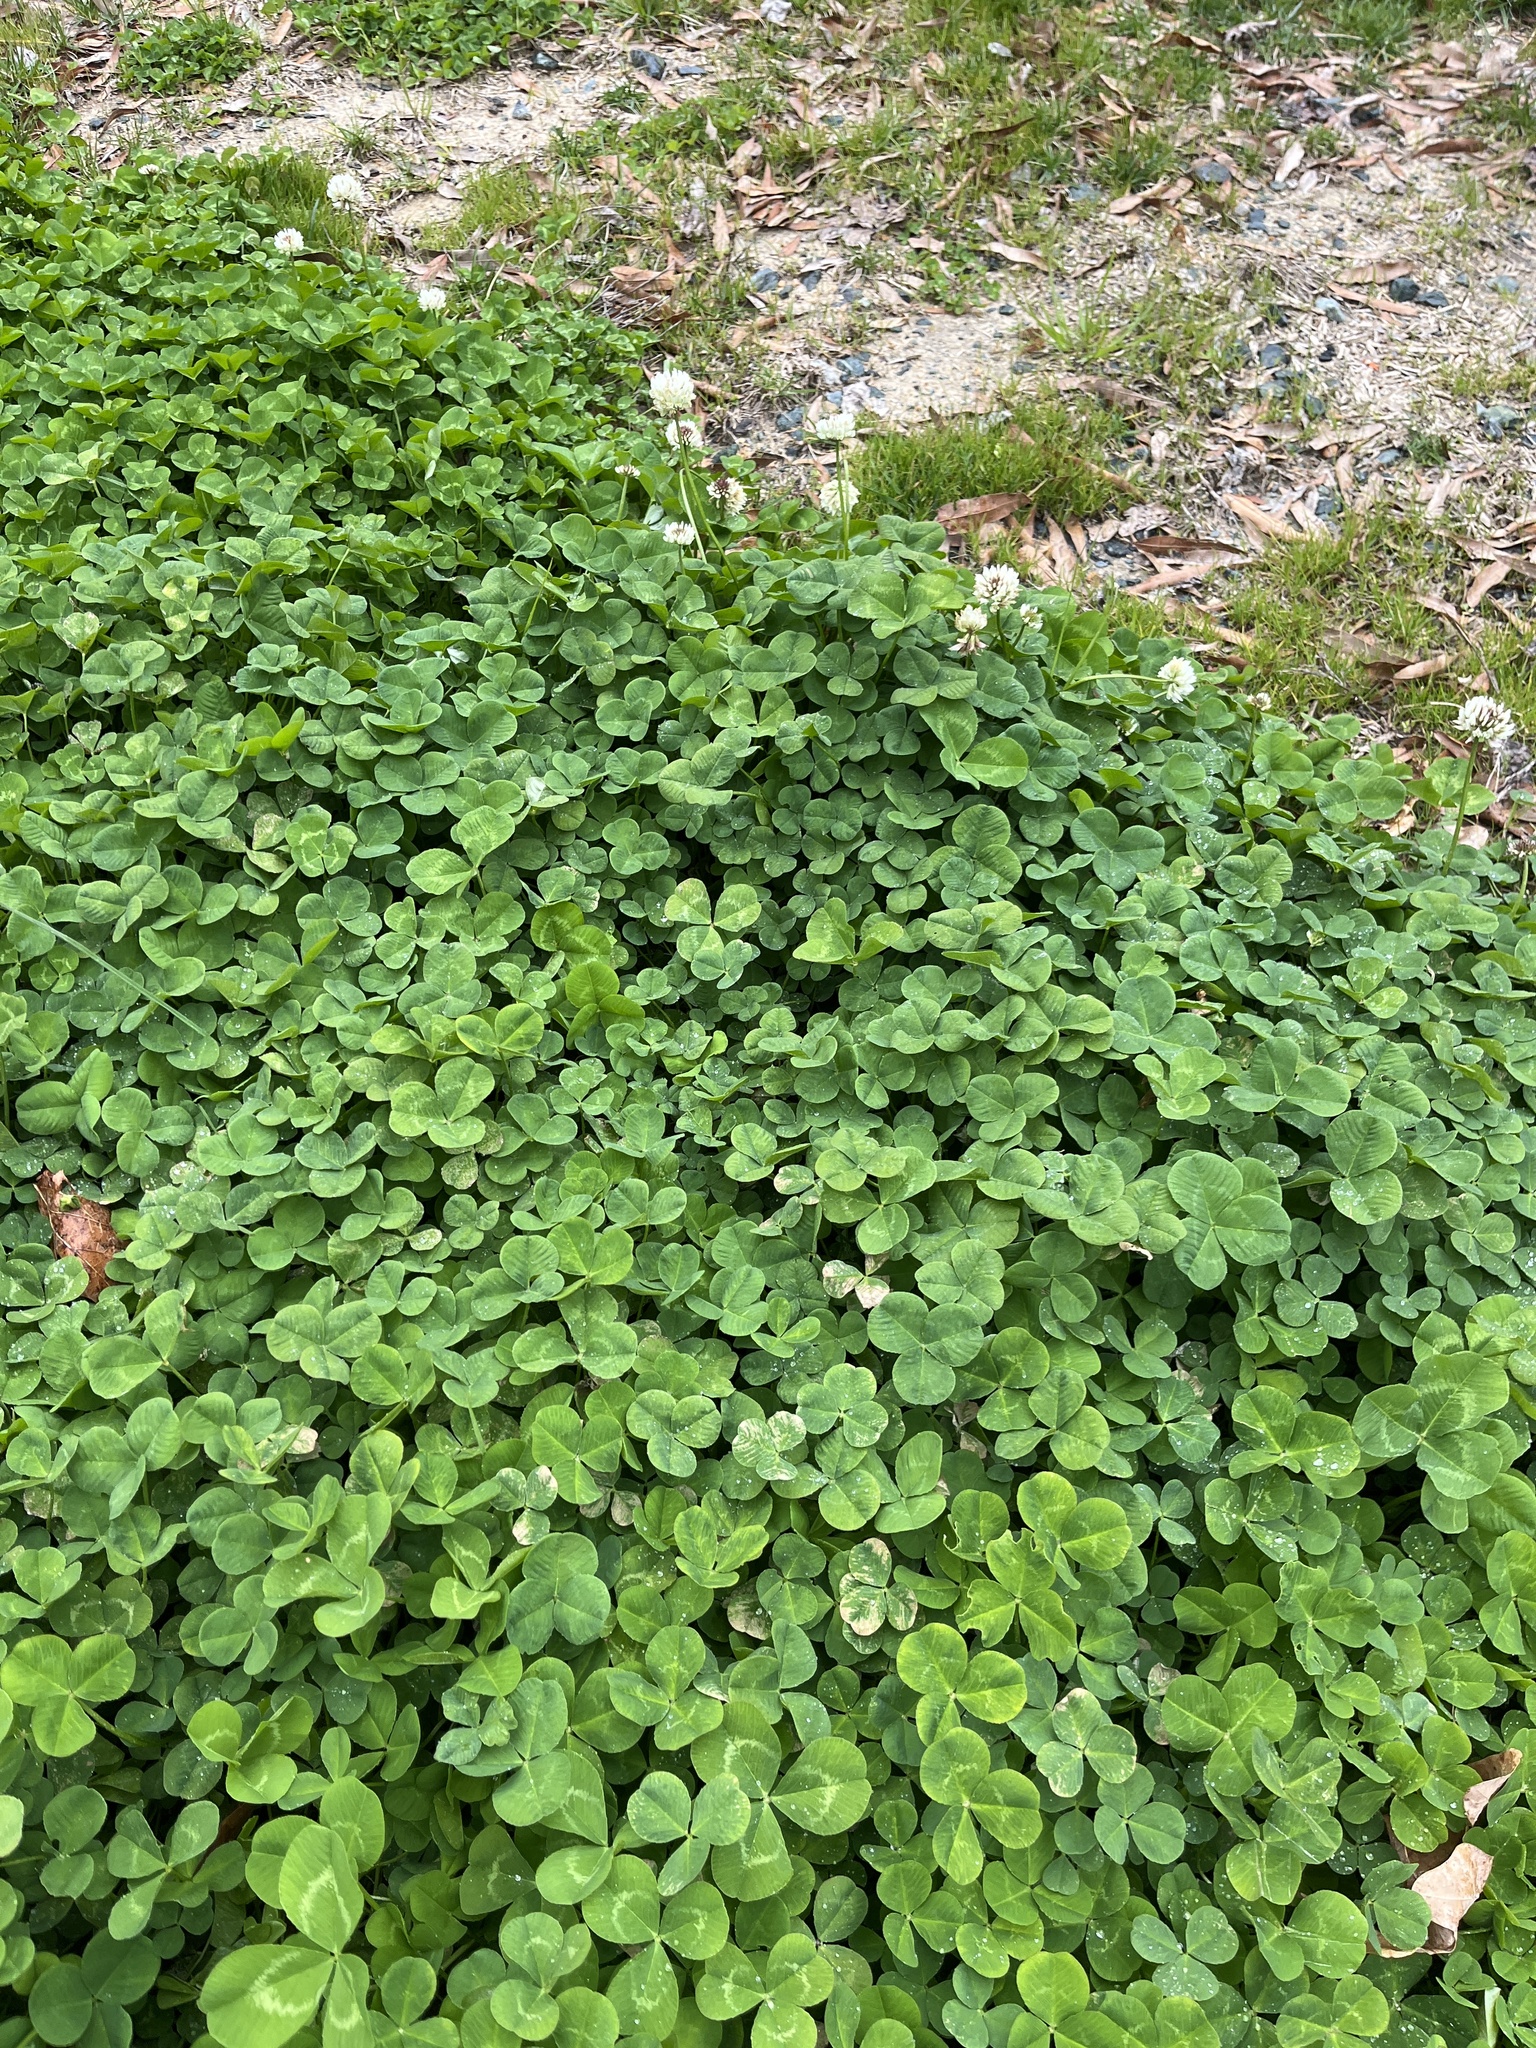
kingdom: Plantae
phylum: Tracheophyta
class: Magnoliopsida
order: Fabales
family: Fabaceae
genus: Trifolium
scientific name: Trifolium repens
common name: White clover
